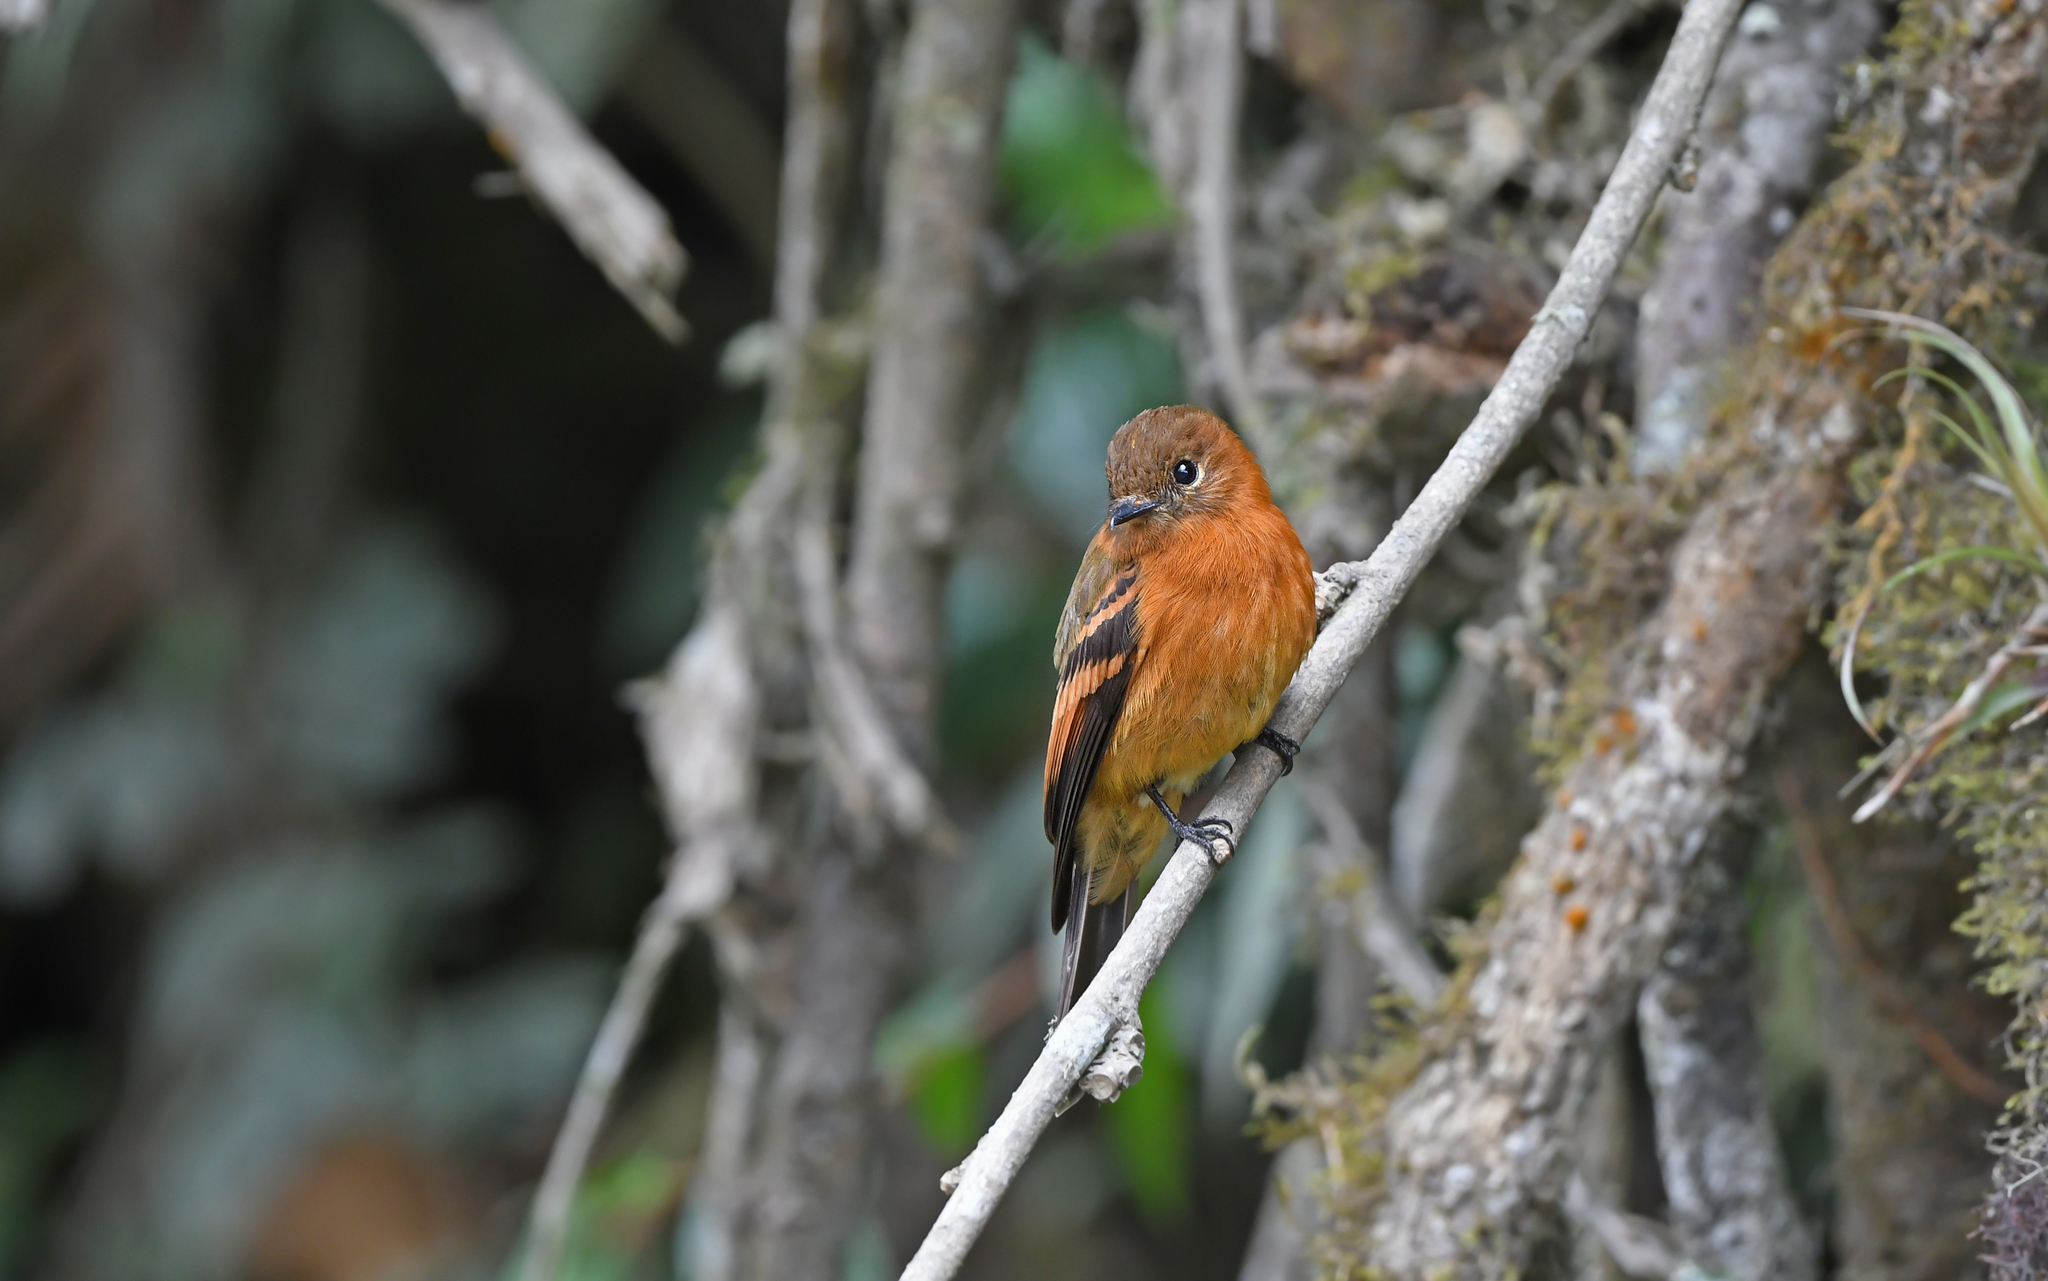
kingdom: Animalia
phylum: Chordata
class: Aves
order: Passeriformes
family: Tyrannidae
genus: Pyrrhomyias
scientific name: Pyrrhomyias cinnamomeus
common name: Cinnamon flycatcher
